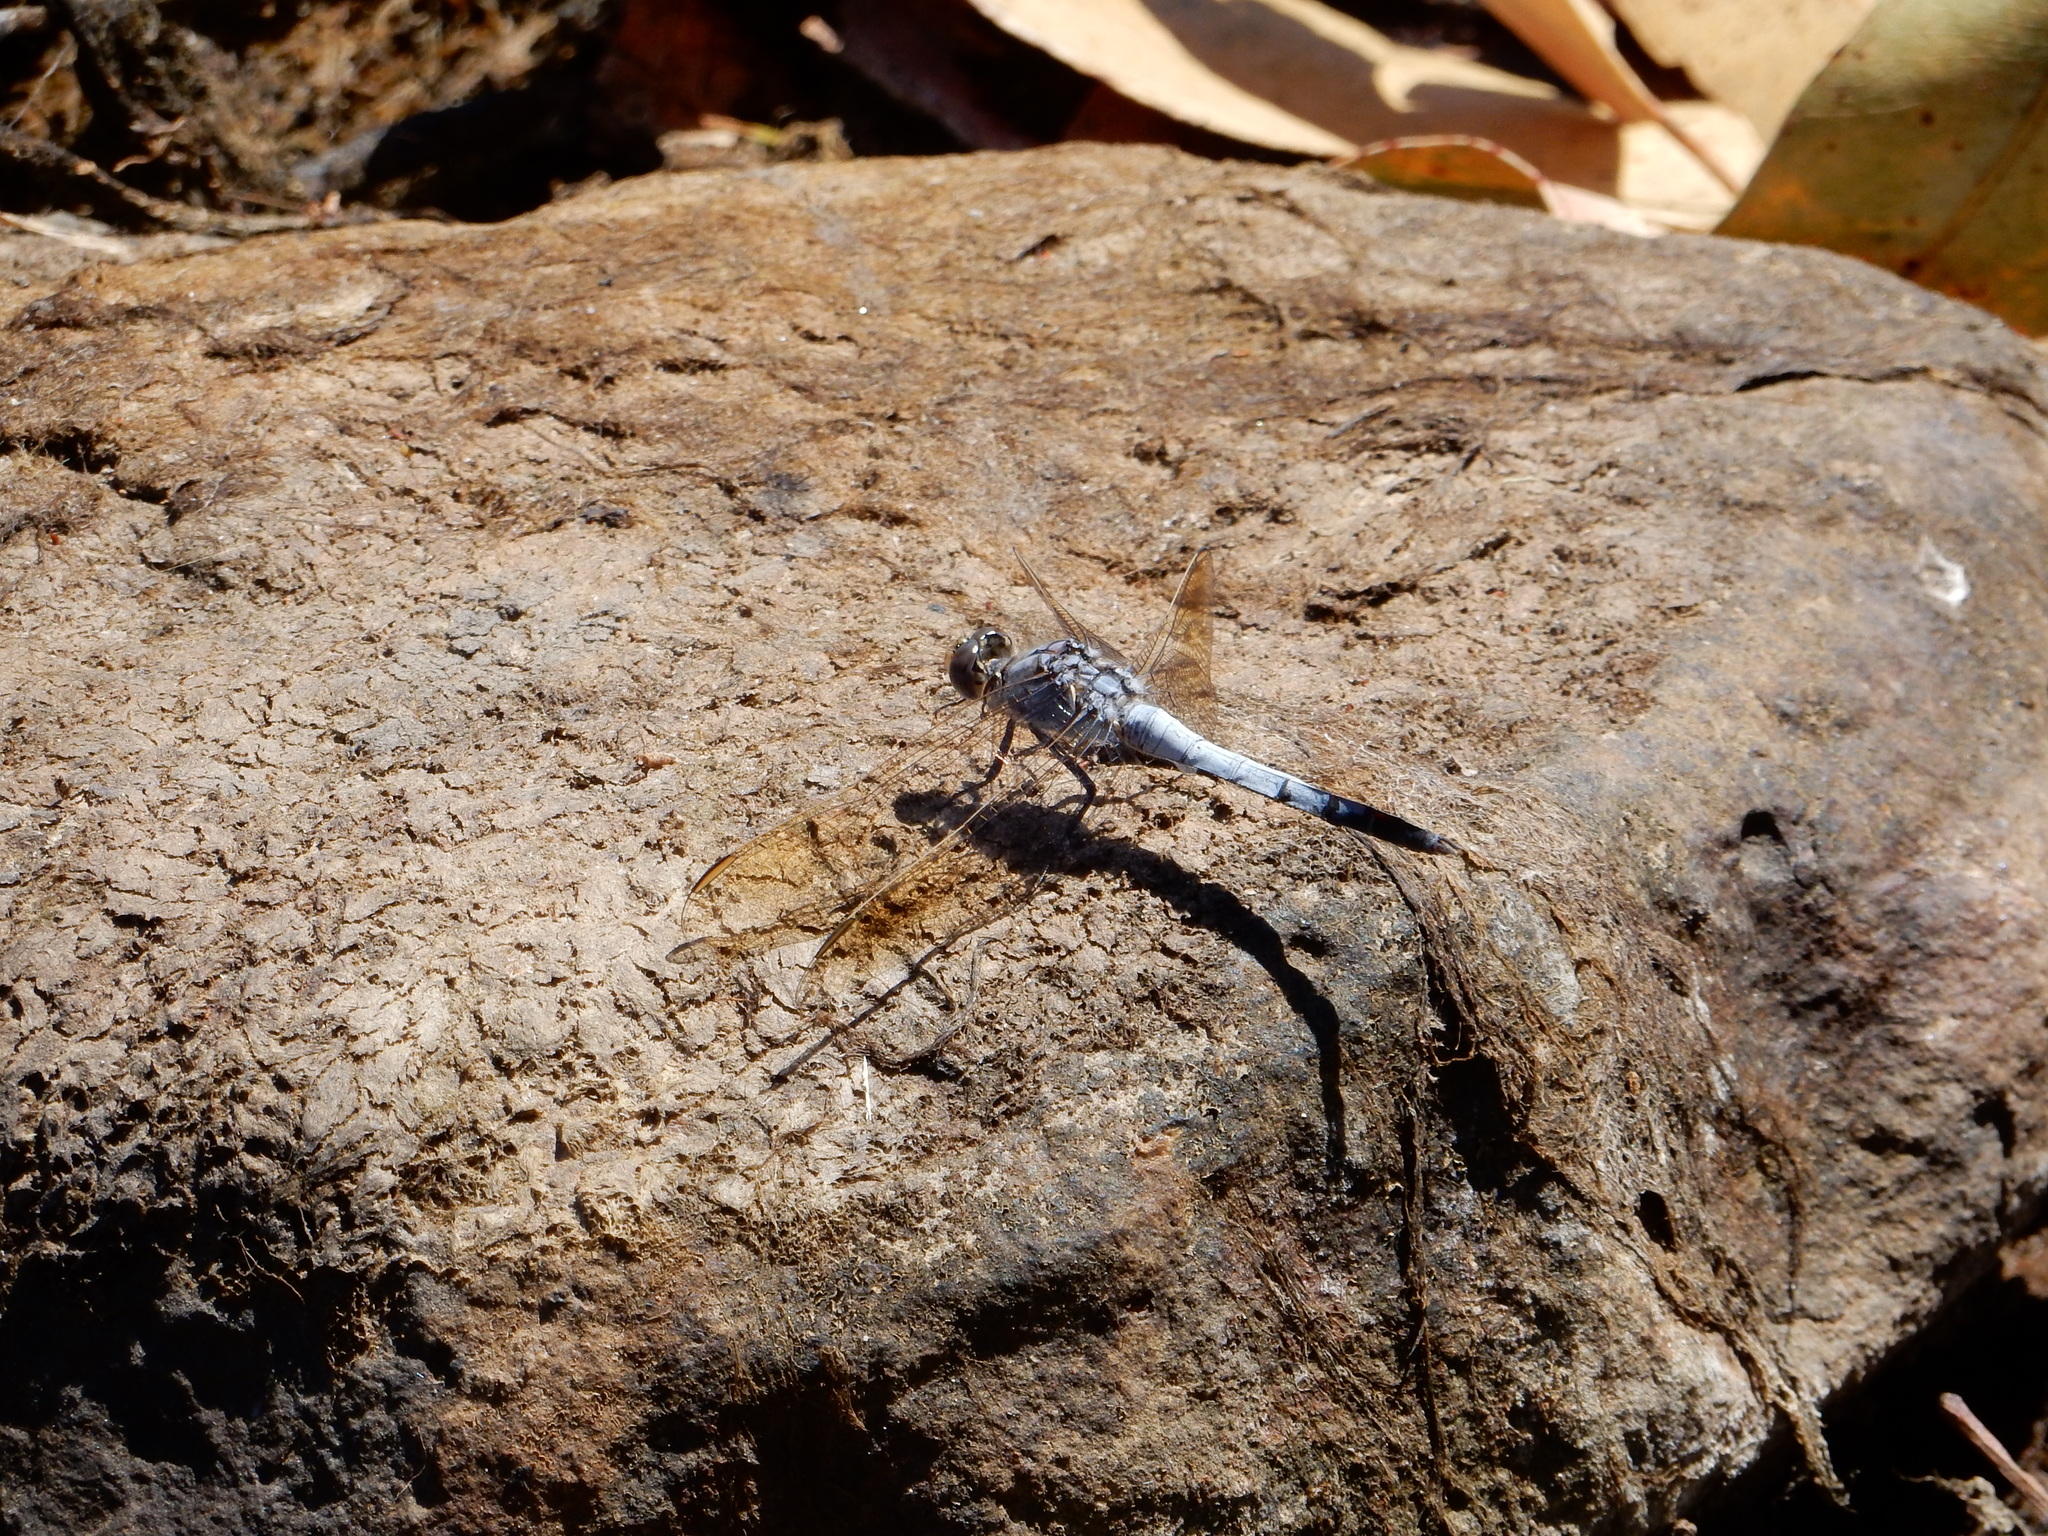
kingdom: Animalia
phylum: Arthropoda
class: Insecta
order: Odonata
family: Libellulidae
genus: Orthetrum
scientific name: Orthetrum caledonicum
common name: Blue skimmer
